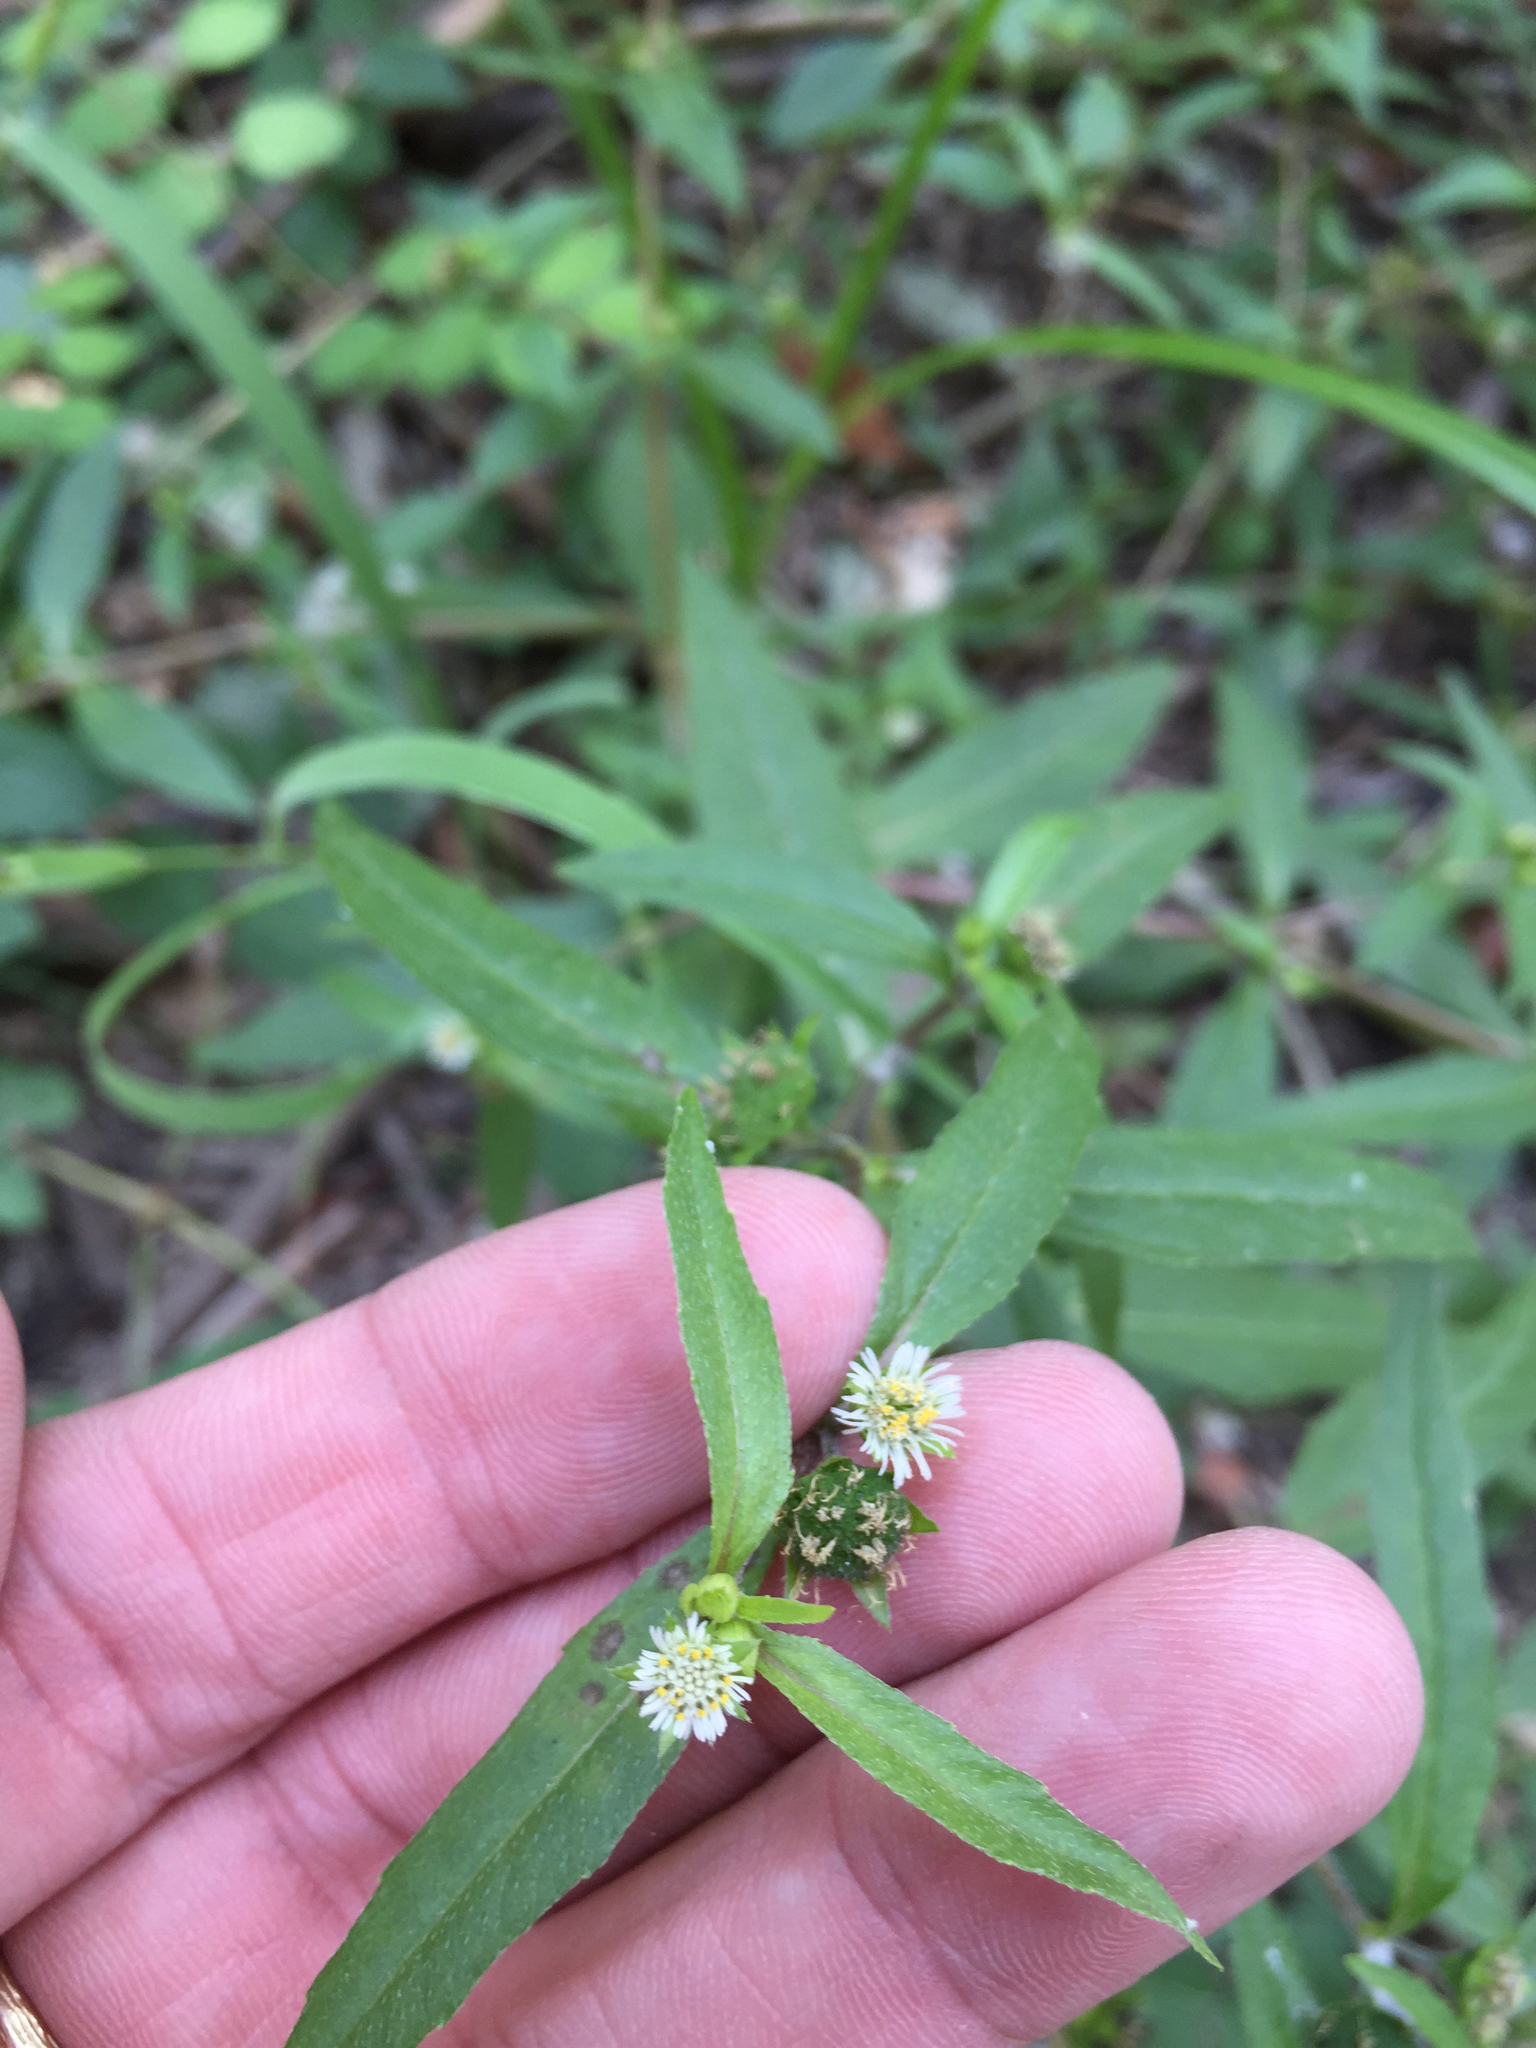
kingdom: Plantae
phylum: Tracheophyta
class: Magnoliopsida
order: Asterales
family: Asteraceae
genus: Eclipta
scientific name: Eclipta prostrata
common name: False daisy
